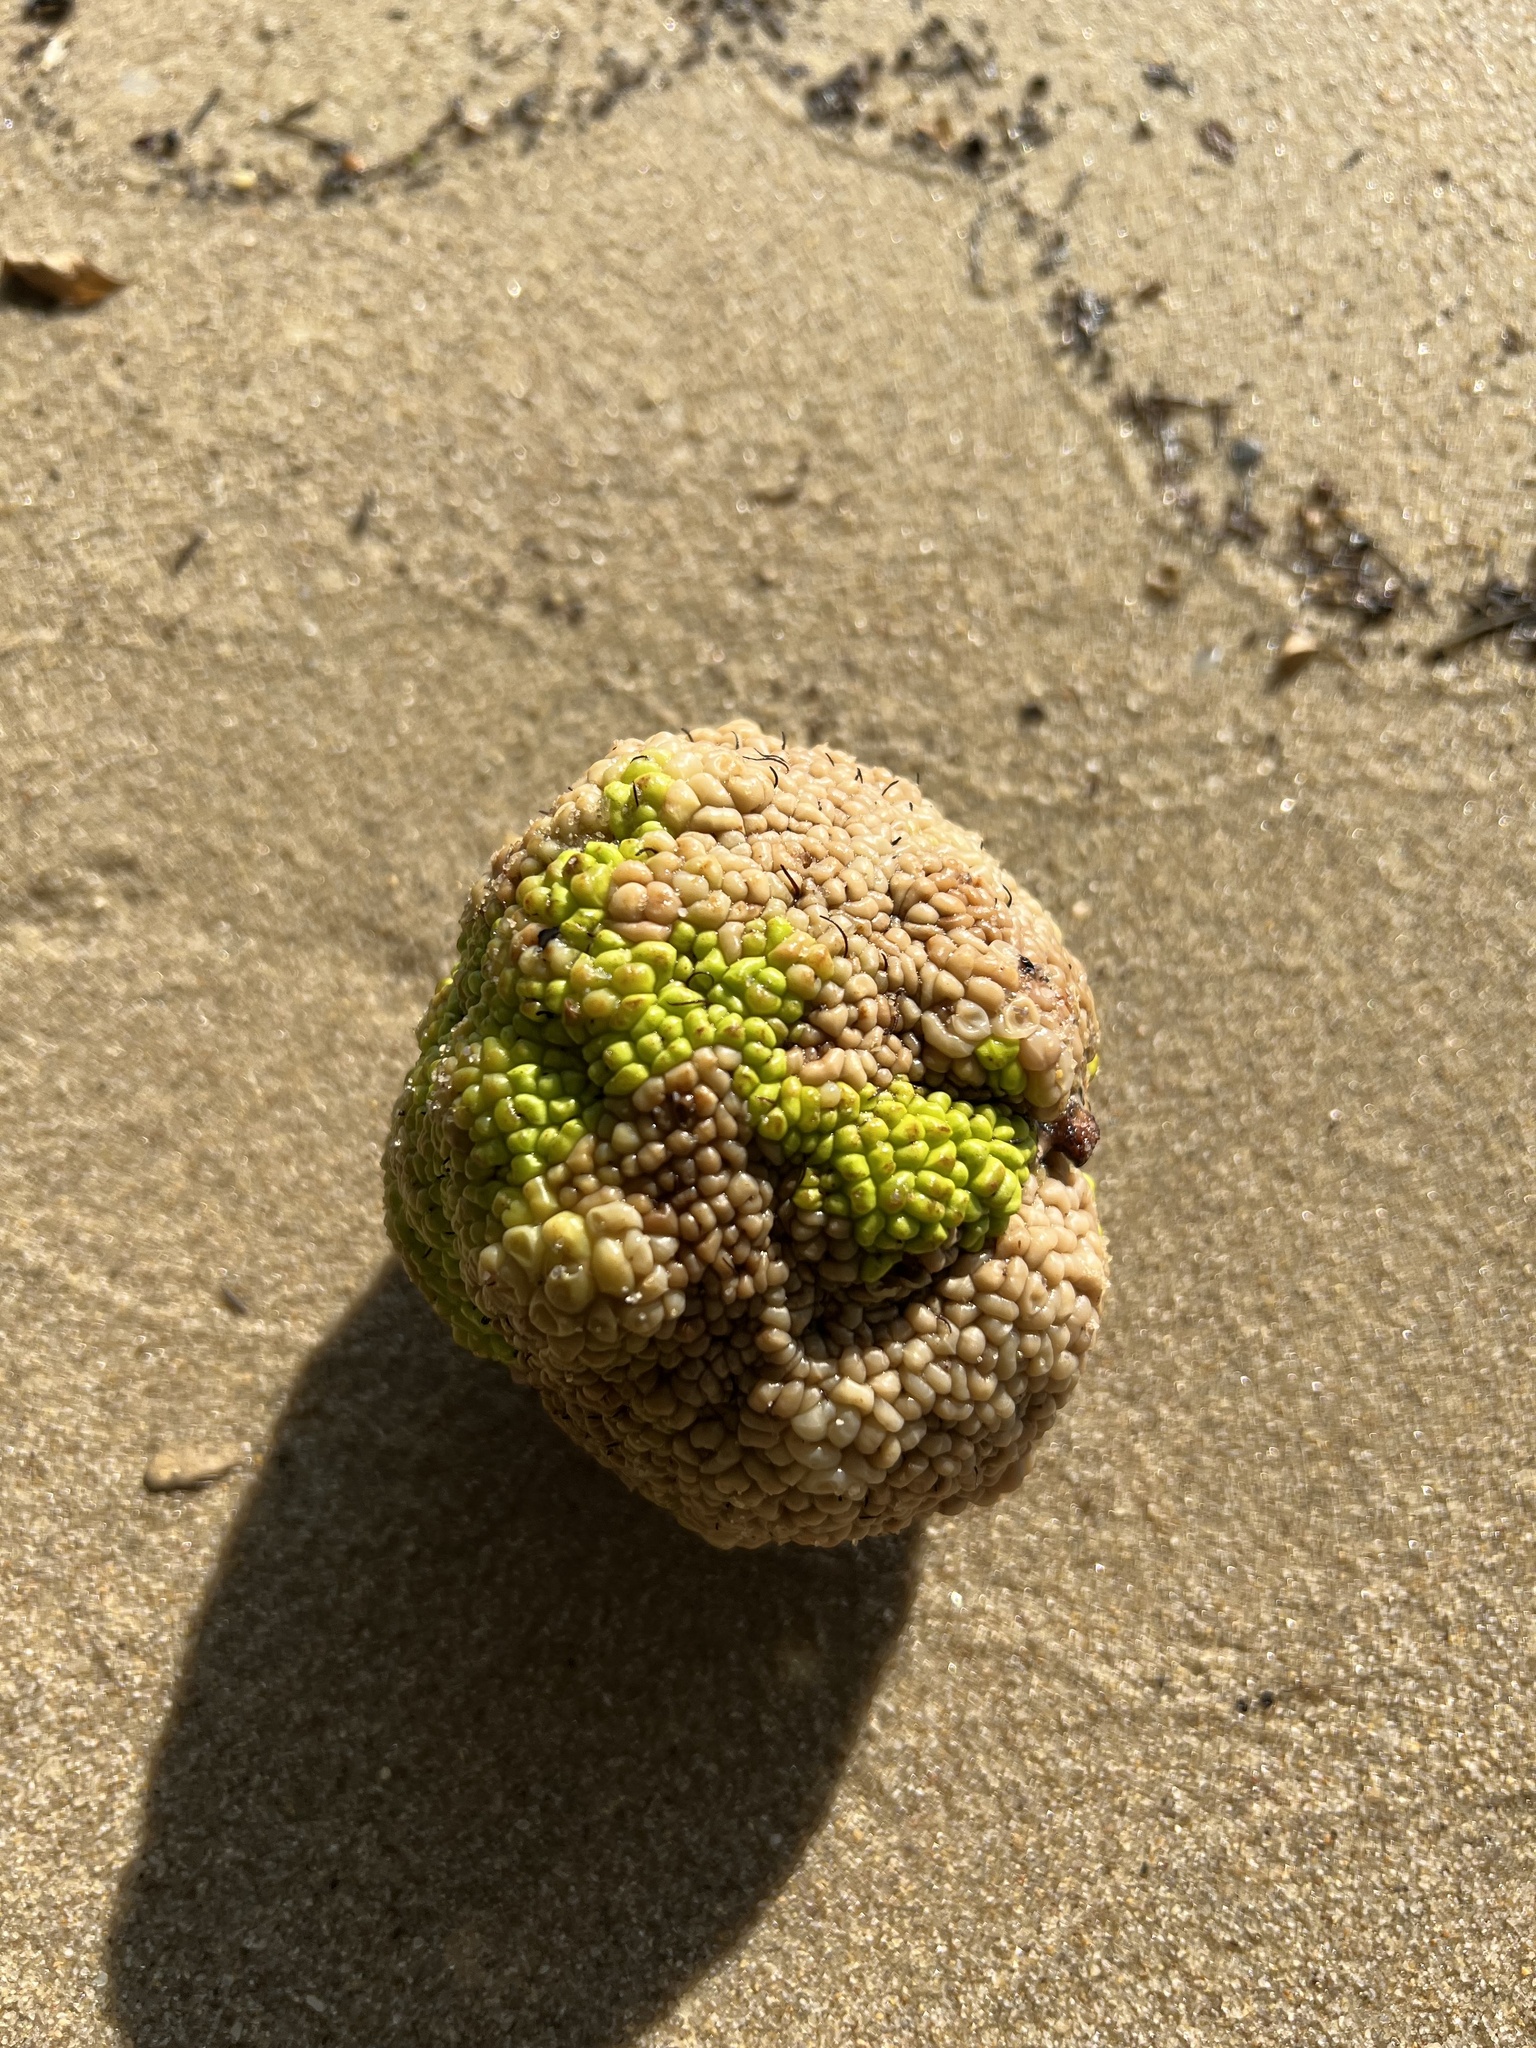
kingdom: Plantae
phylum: Tracheophyta
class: Magnoliopsida
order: Rosales
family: Moraceae
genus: Maclura
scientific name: Maclura pomifera
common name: Osage-orange
